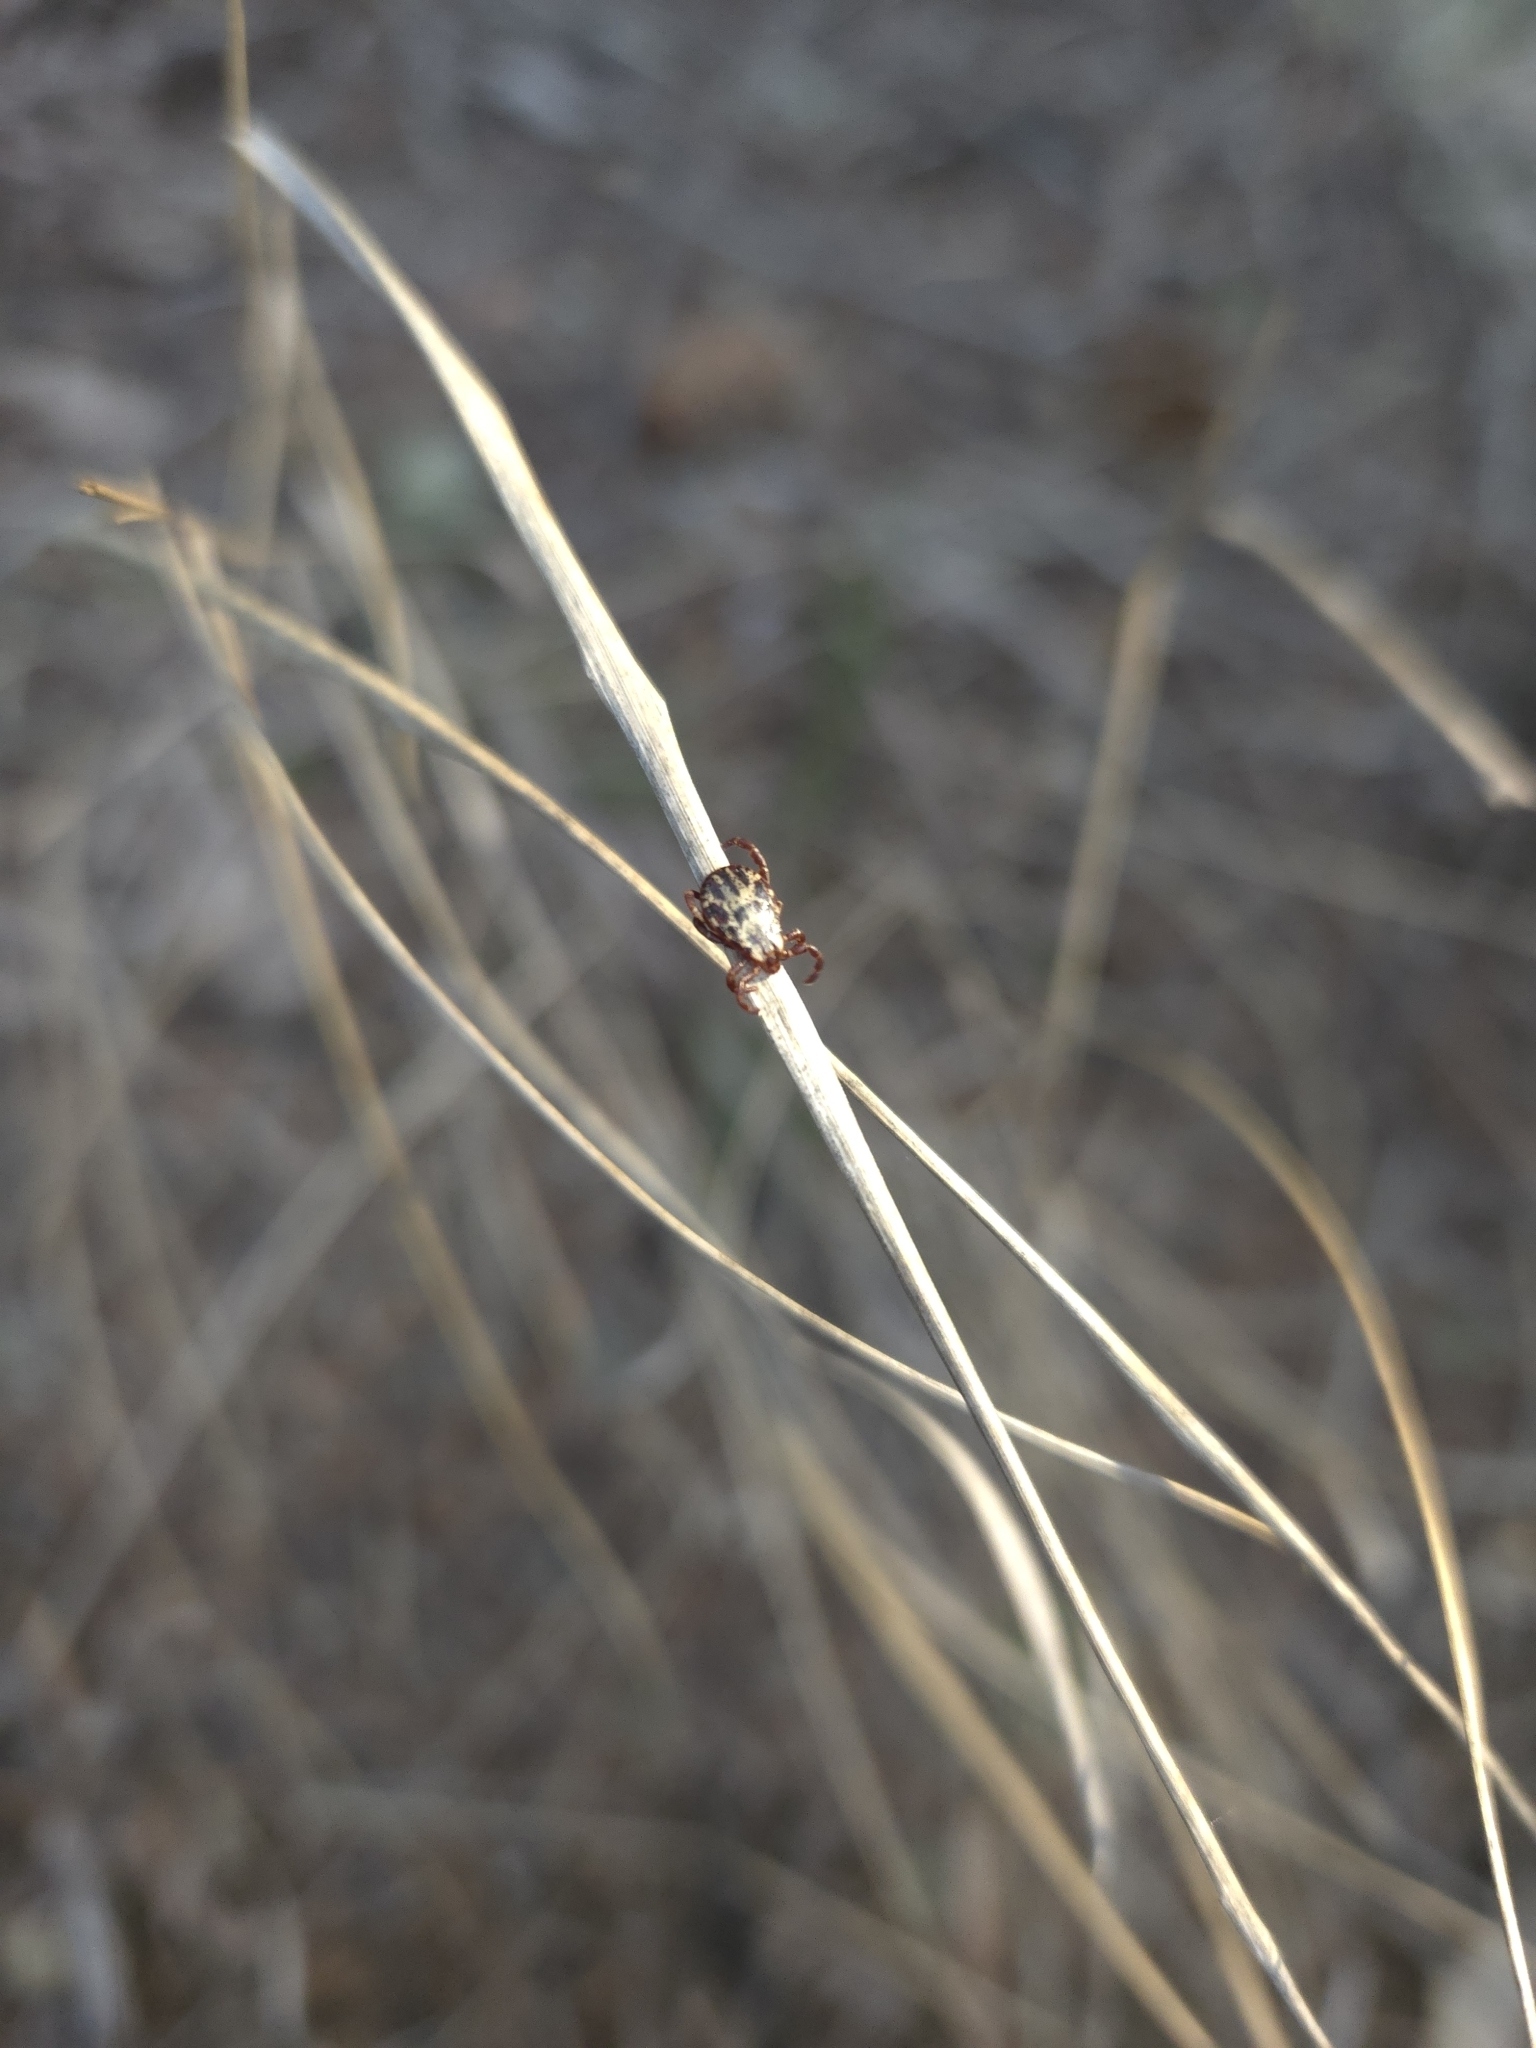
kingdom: Animalia
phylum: Arthropoda
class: Arachnida
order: Ixodida
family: Ixodidae
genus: Dermacentor
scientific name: Dermacentor andersoni
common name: Rocky mountain wood tick
